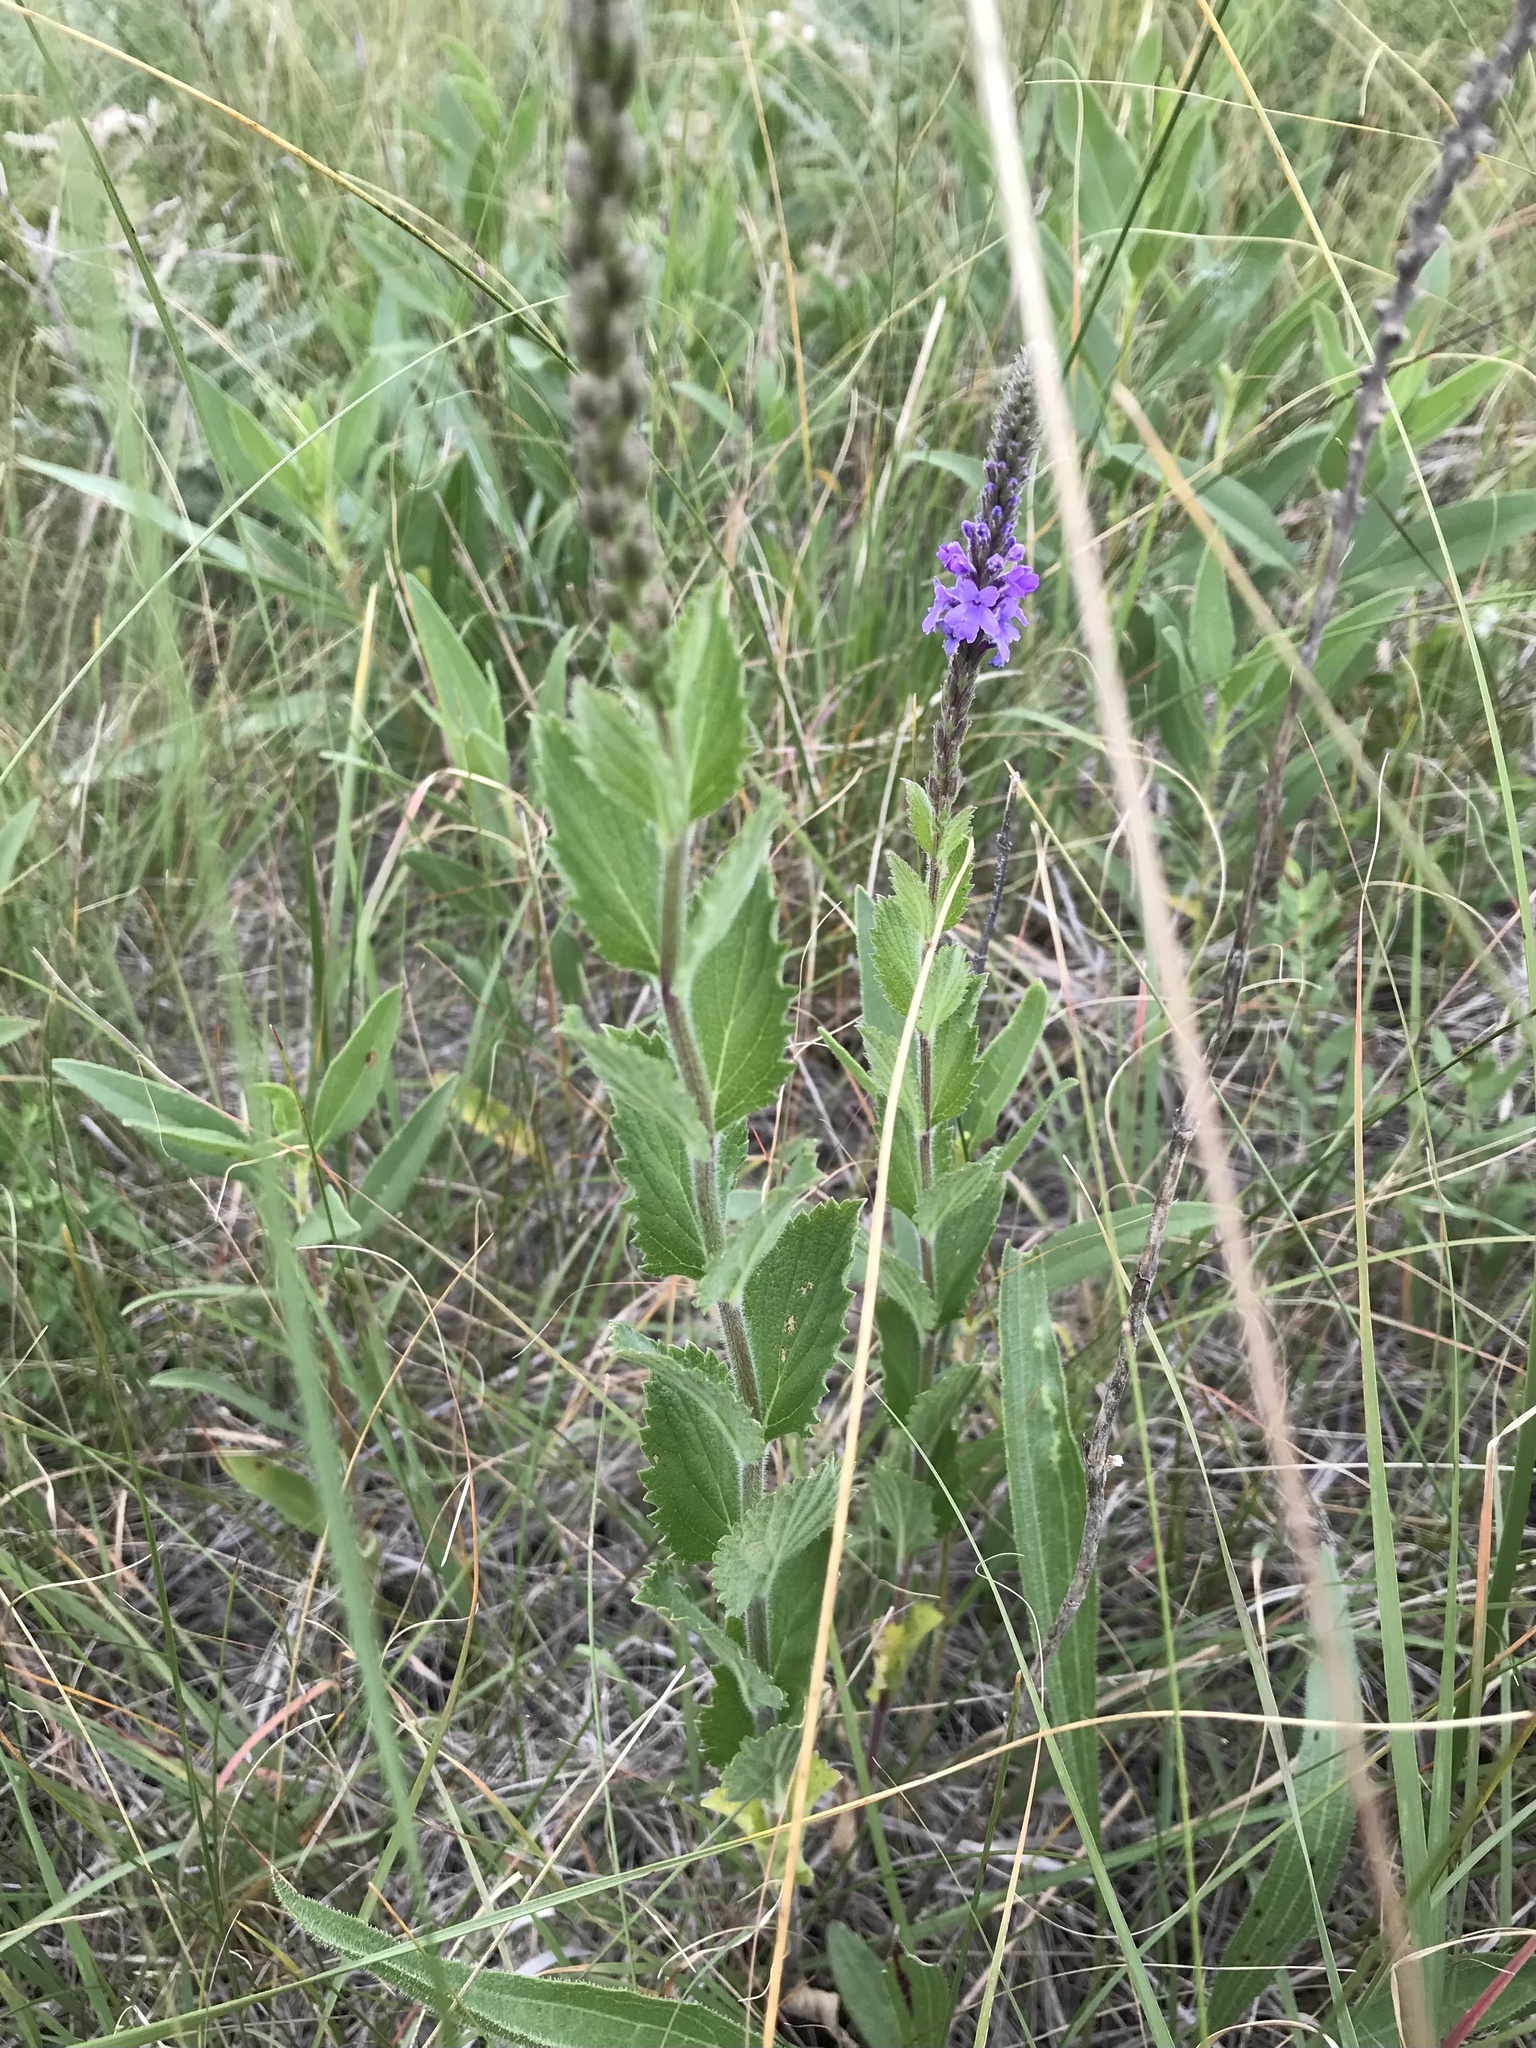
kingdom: Plantae
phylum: Tracheophyta
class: Magnoliopsida
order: Lamiales
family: Verbenaceae
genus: Verbena
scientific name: Verbena stricta
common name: Hoary vervain
